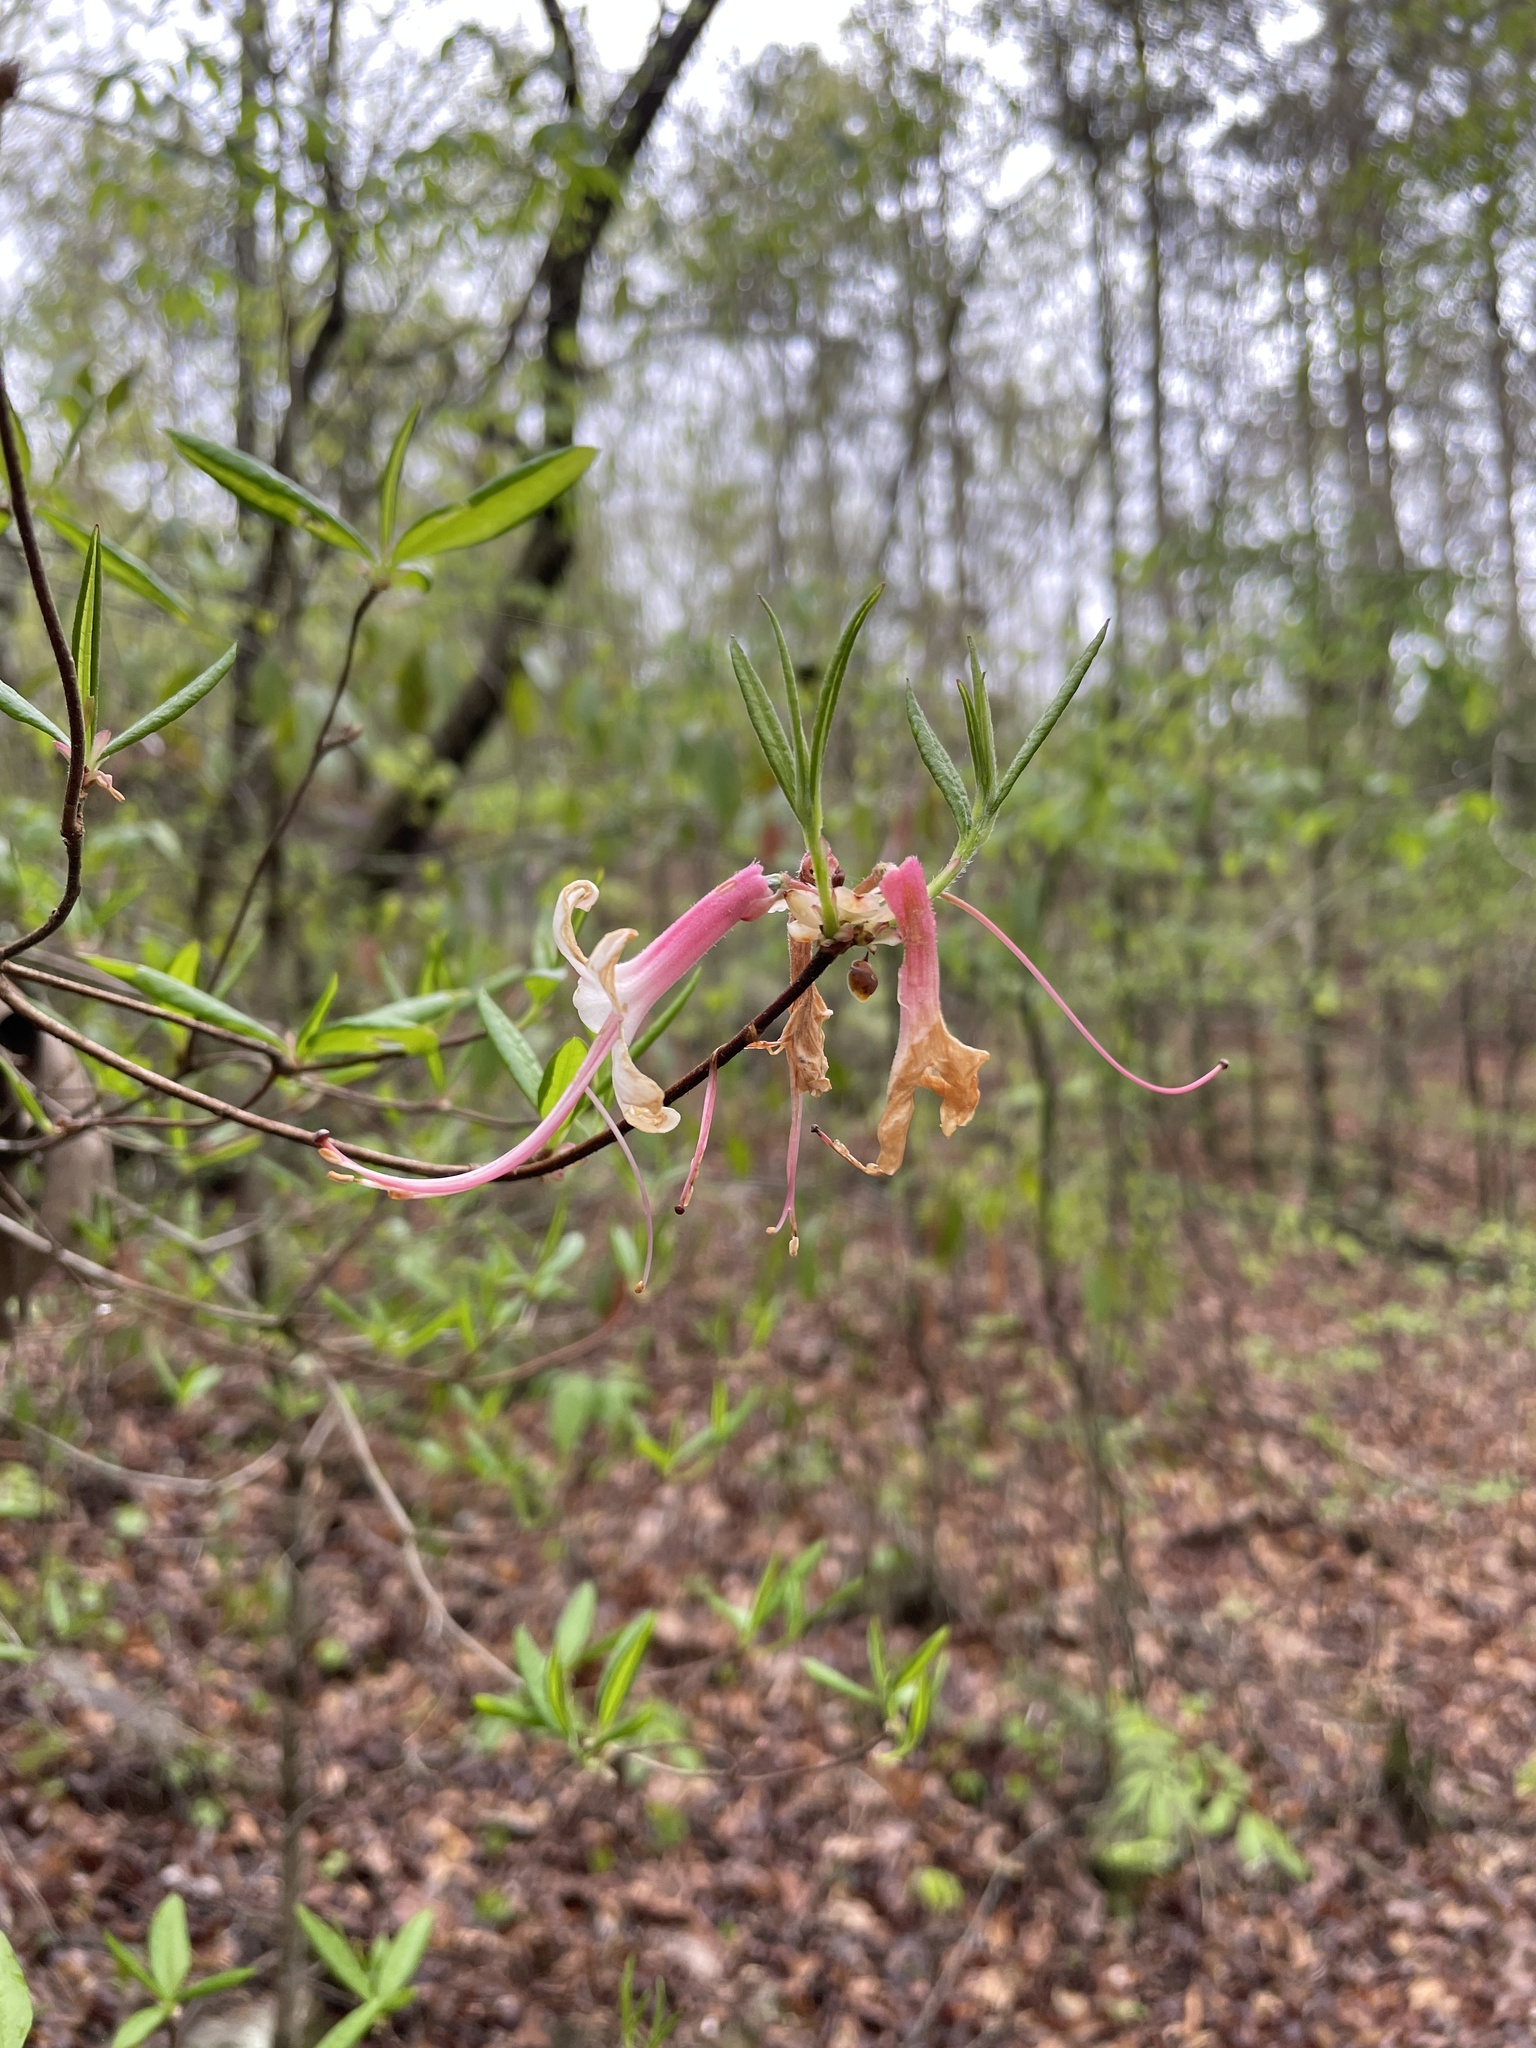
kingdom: Plantae
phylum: Tracheophyta
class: Magnoliopsida
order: Ericales
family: Ericaceae
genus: Rhododendron
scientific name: Rhododendron canescens
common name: Mountain azalea
